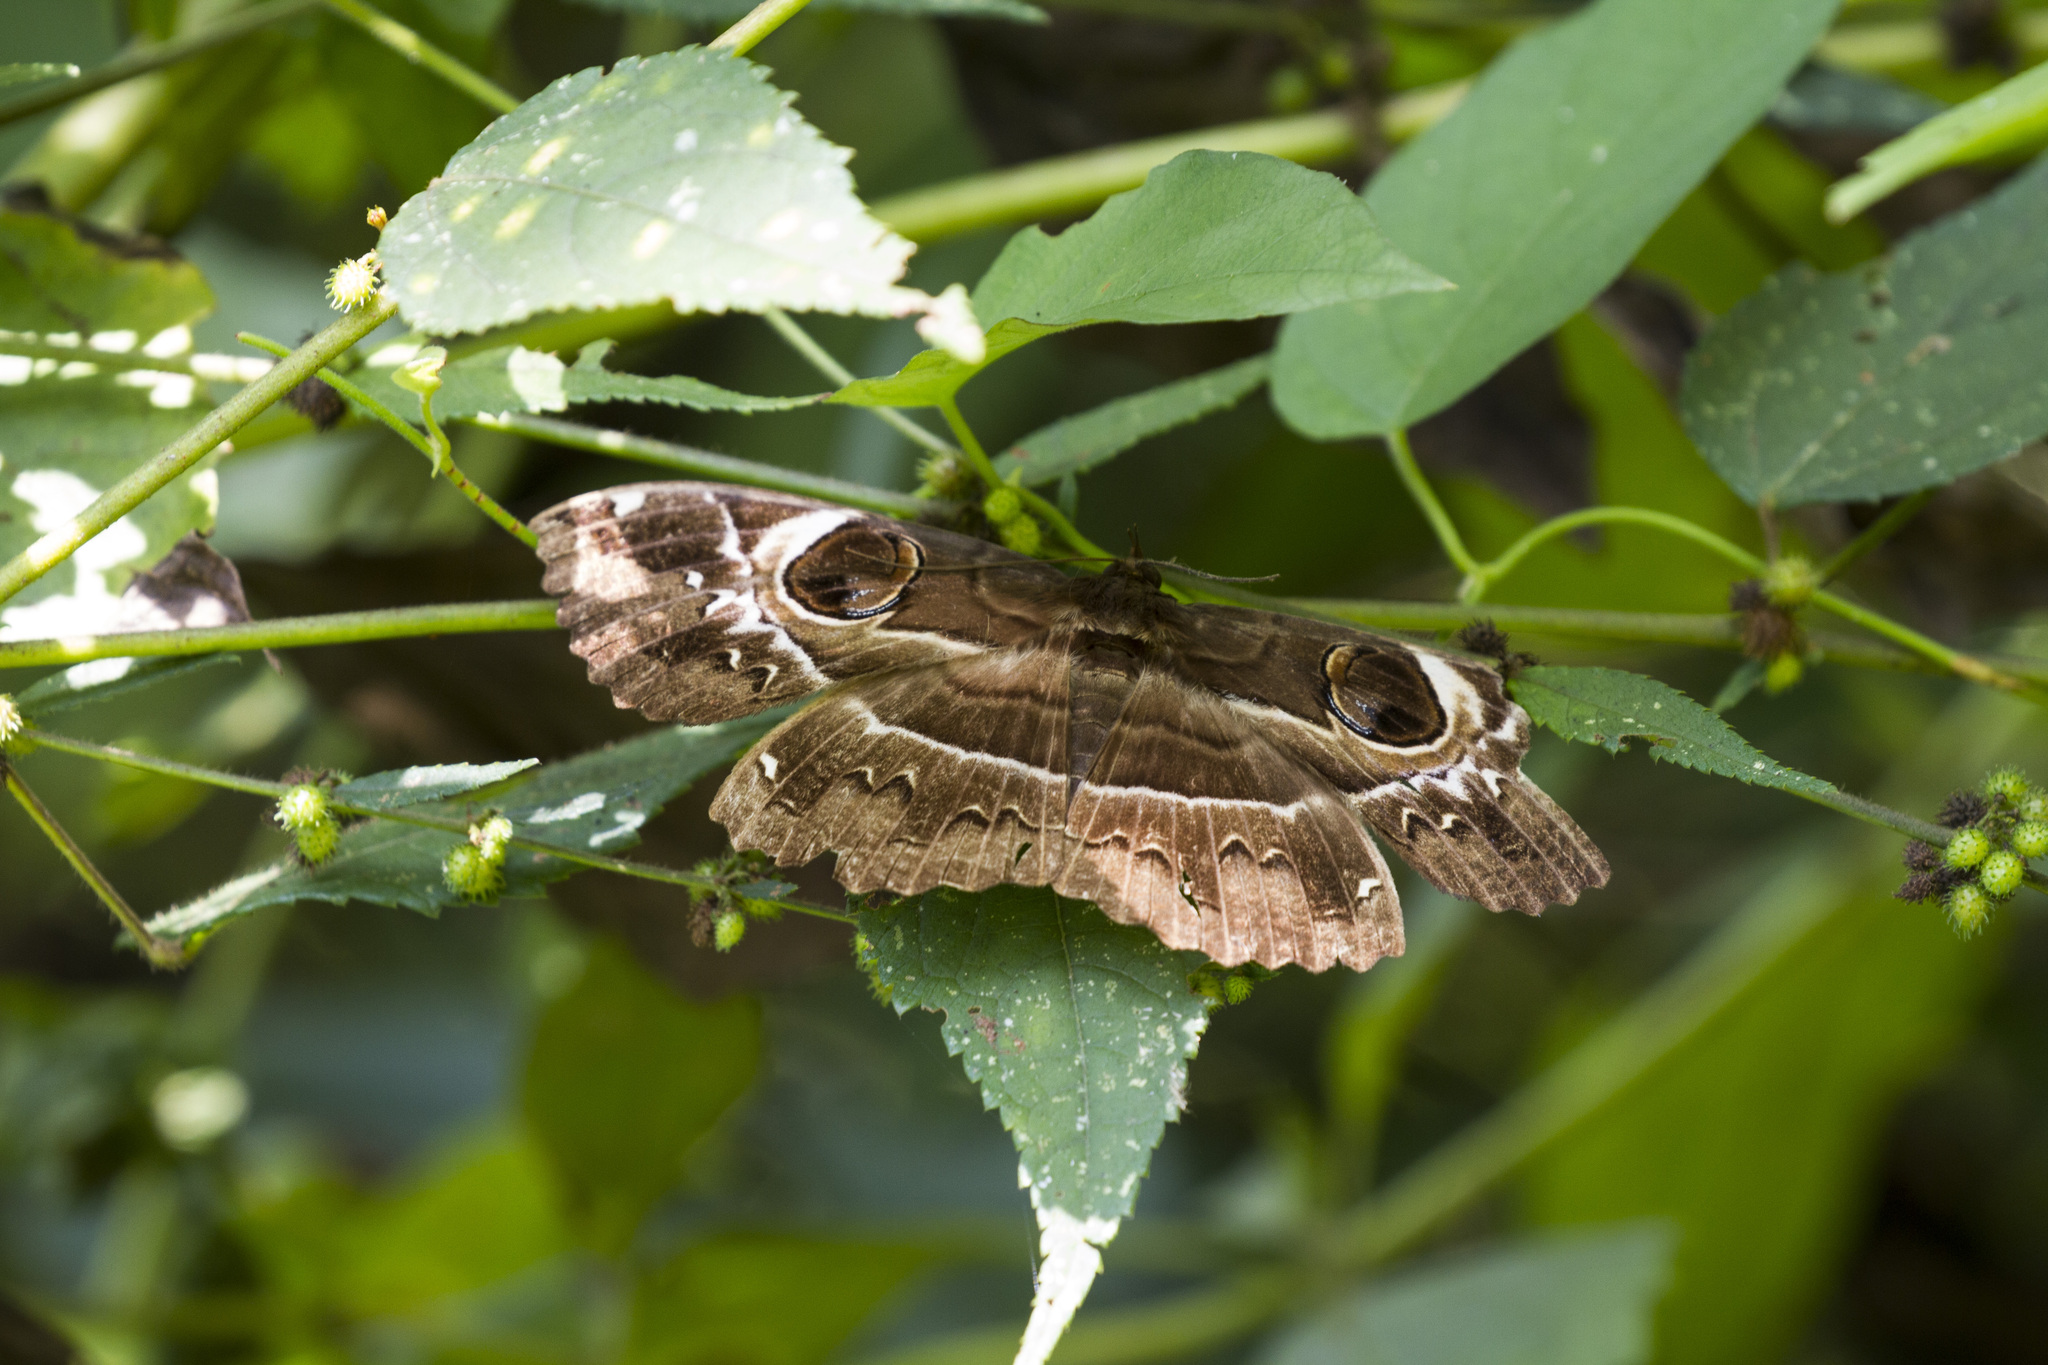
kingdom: Animalia
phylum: Arthropoda
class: Insecta
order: Lepidoptera
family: Erebidae
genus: Erebus
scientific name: Erebus ephesperis
